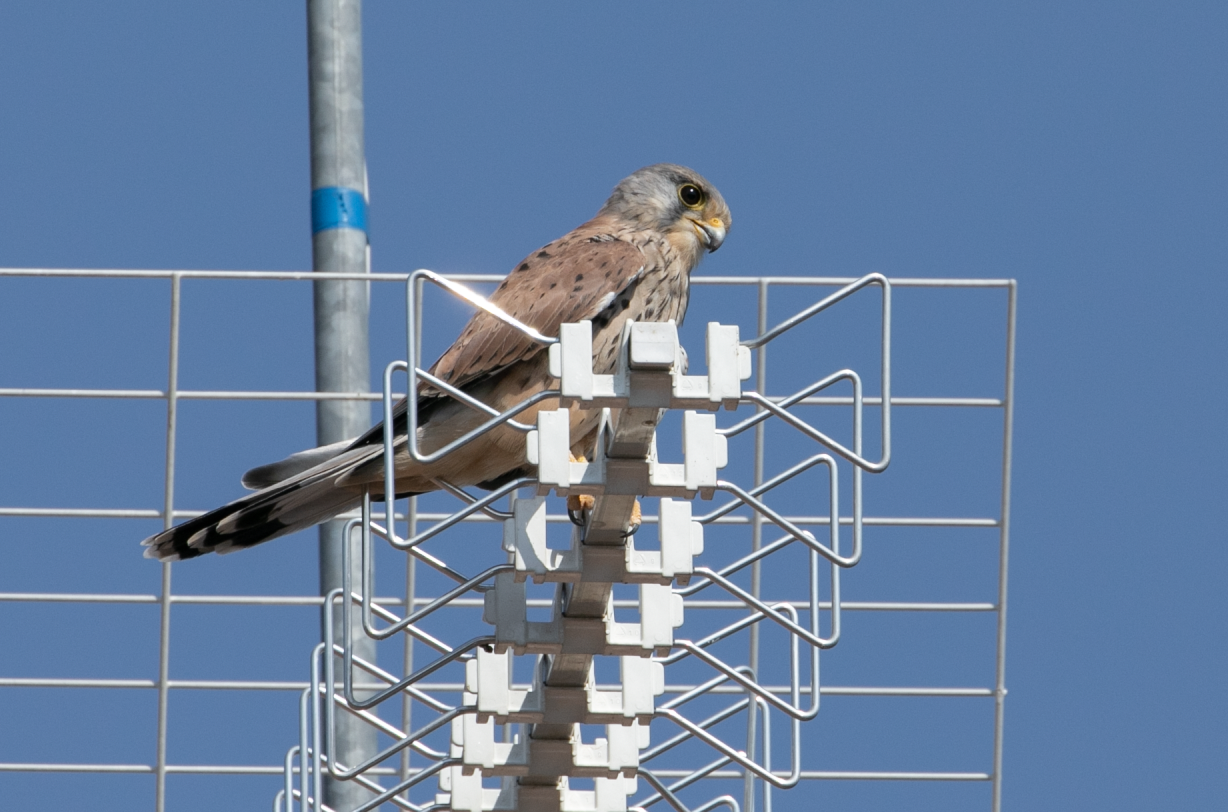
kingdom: Animalia
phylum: Chordata
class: Aves
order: Falconiformes
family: Falconidae
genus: Falco
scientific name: Falco tinnunculus
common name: Common kestrel
